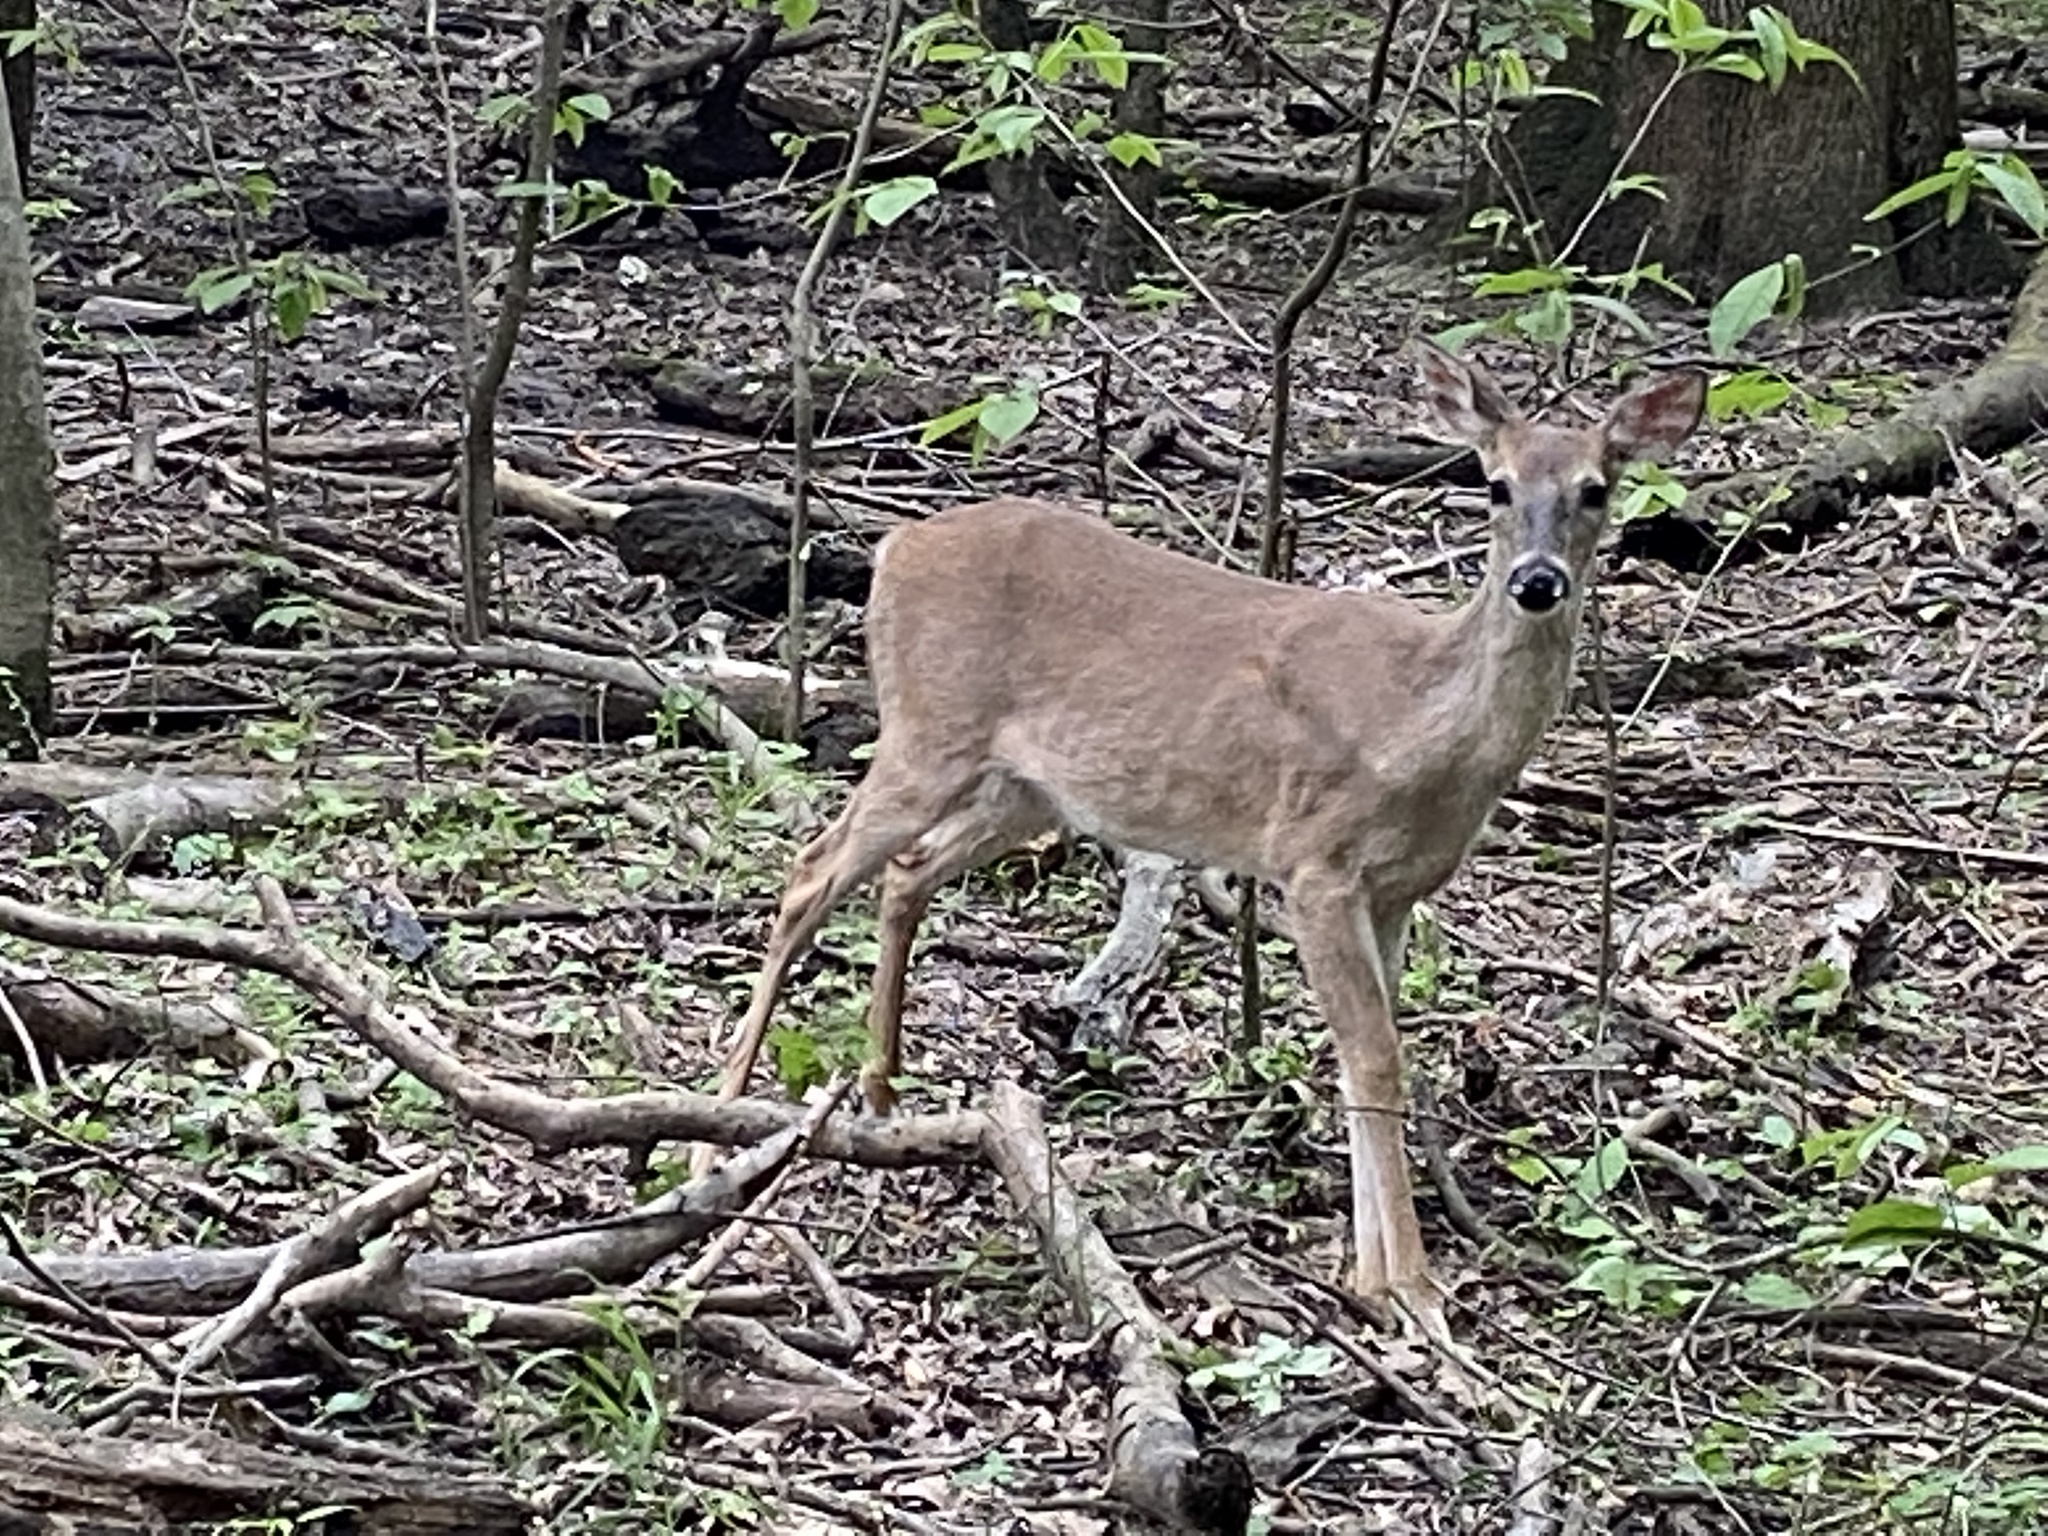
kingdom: Animalia
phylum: Chordata
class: Mammalia
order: Artiodactyla
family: Cervidae
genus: Odocoileus
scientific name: Odocoileus virginianus
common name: White-tailed deer
